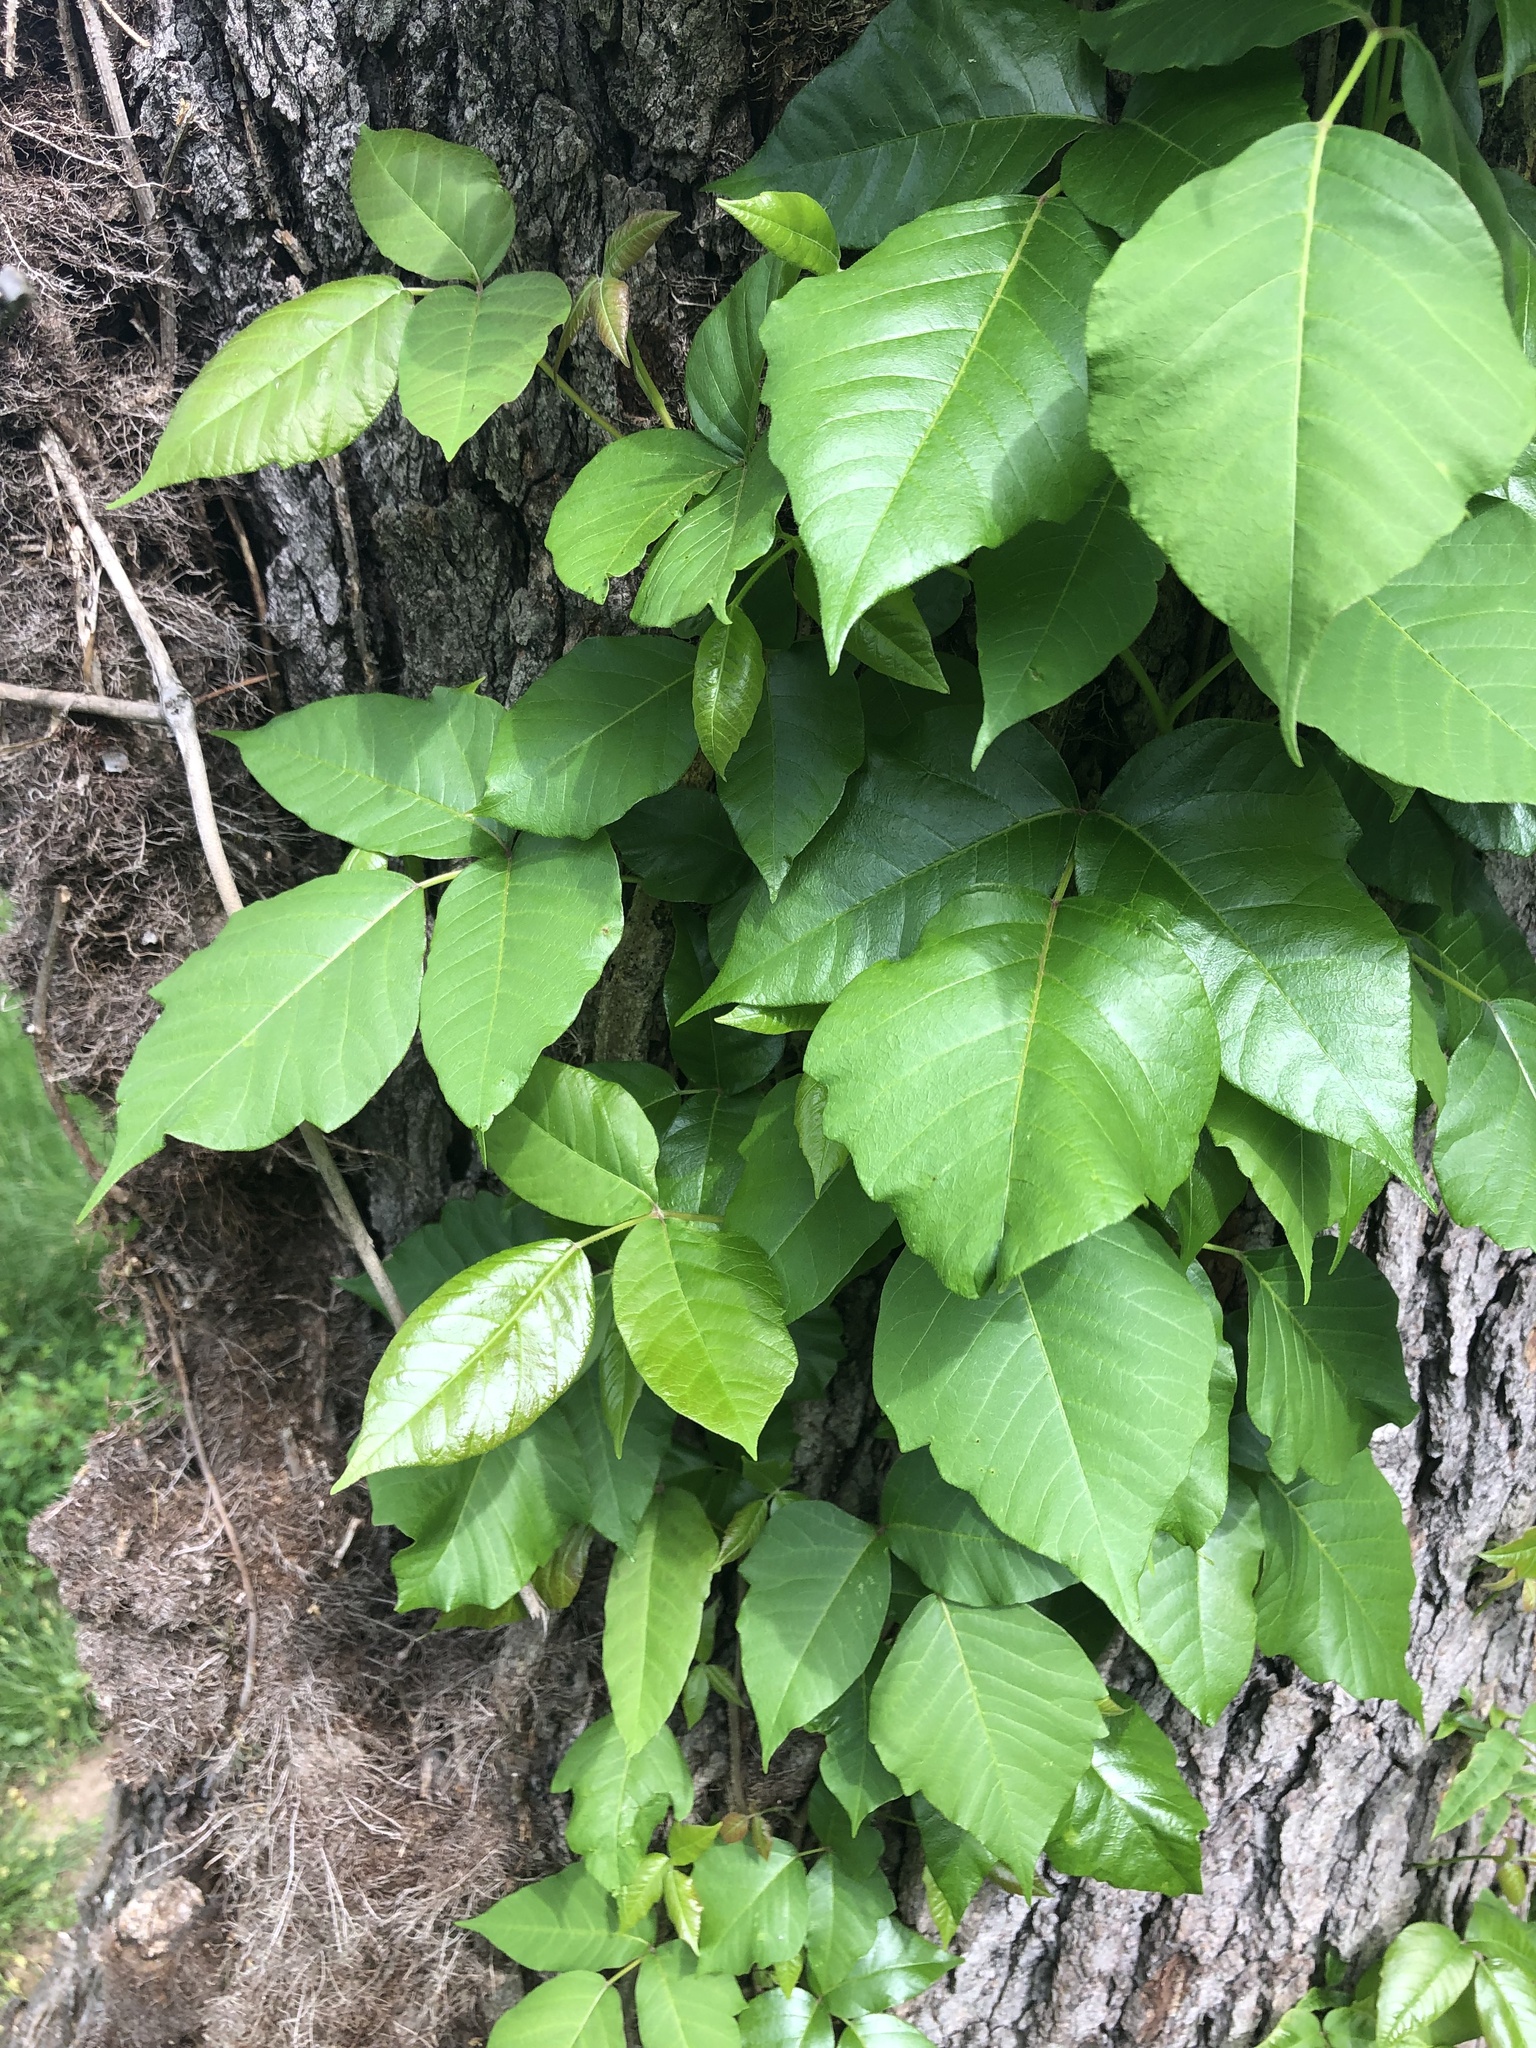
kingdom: Plantae
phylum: Tracheophyta
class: Magnoliopsida
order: Sapindales
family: Anacardiaceae
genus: Toxicodendron
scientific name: Toxicodendron radicans
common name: Poison ivy
